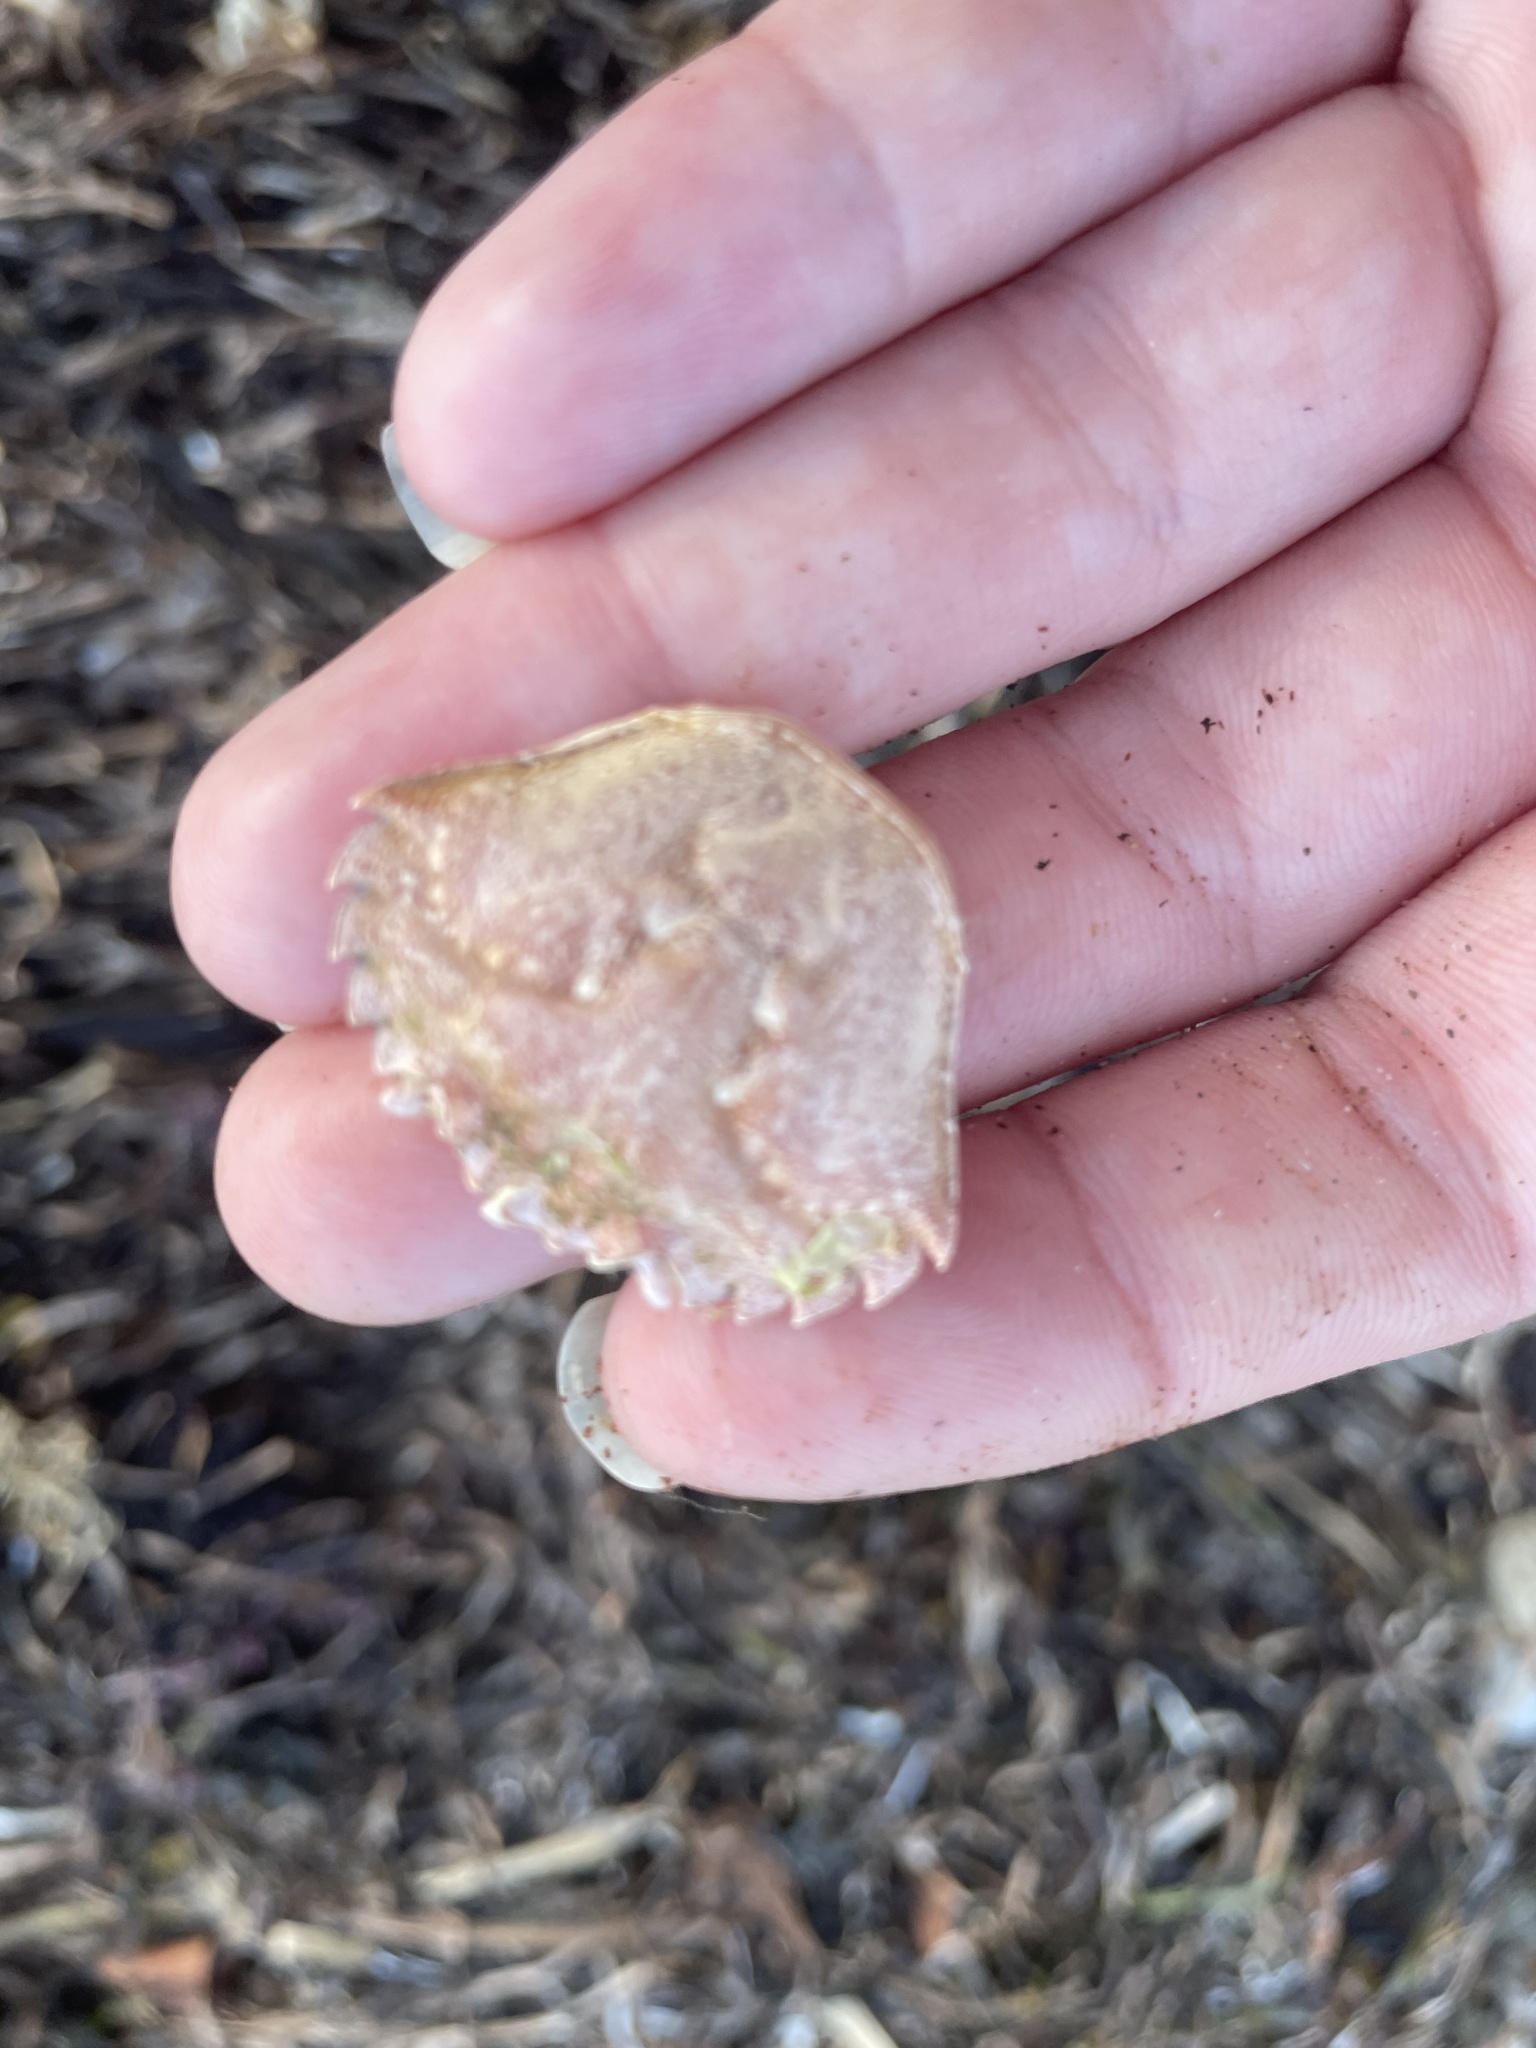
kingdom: Animalia
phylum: Arthropoda
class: Malacostraca
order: Decapoda
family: Carcinidae
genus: Carcinus
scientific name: Carcinus maenas
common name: European green crab
